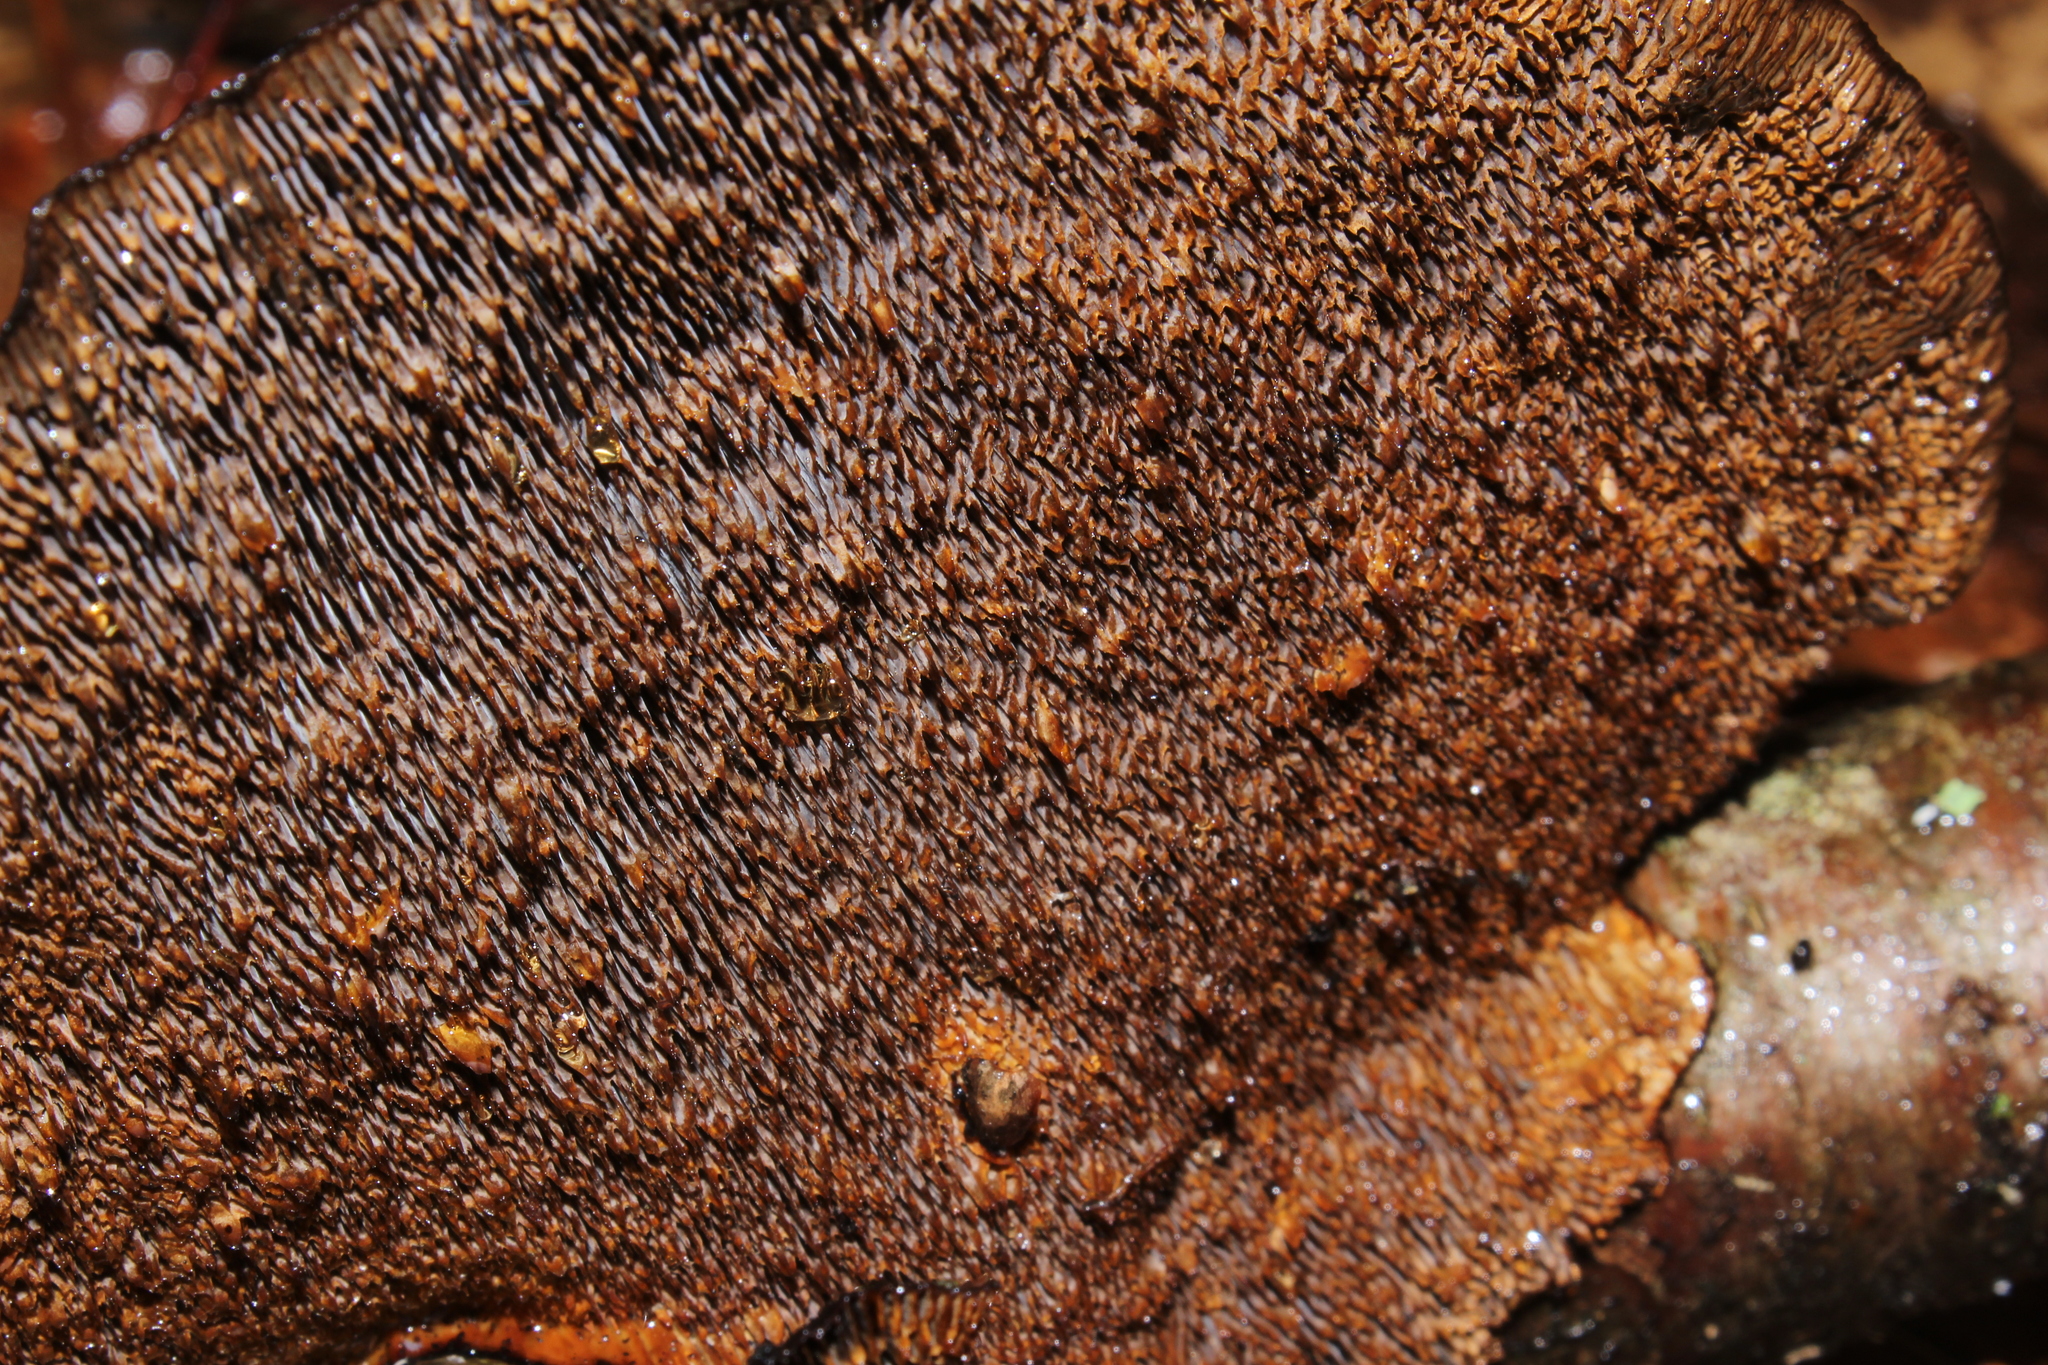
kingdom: Fungi
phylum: Basidiomycota
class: Agaricomycetes
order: Polyporales
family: Polyporaceae
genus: Daedaleopsis
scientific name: Daedaleopsis confragosa
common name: Blushing bracket
